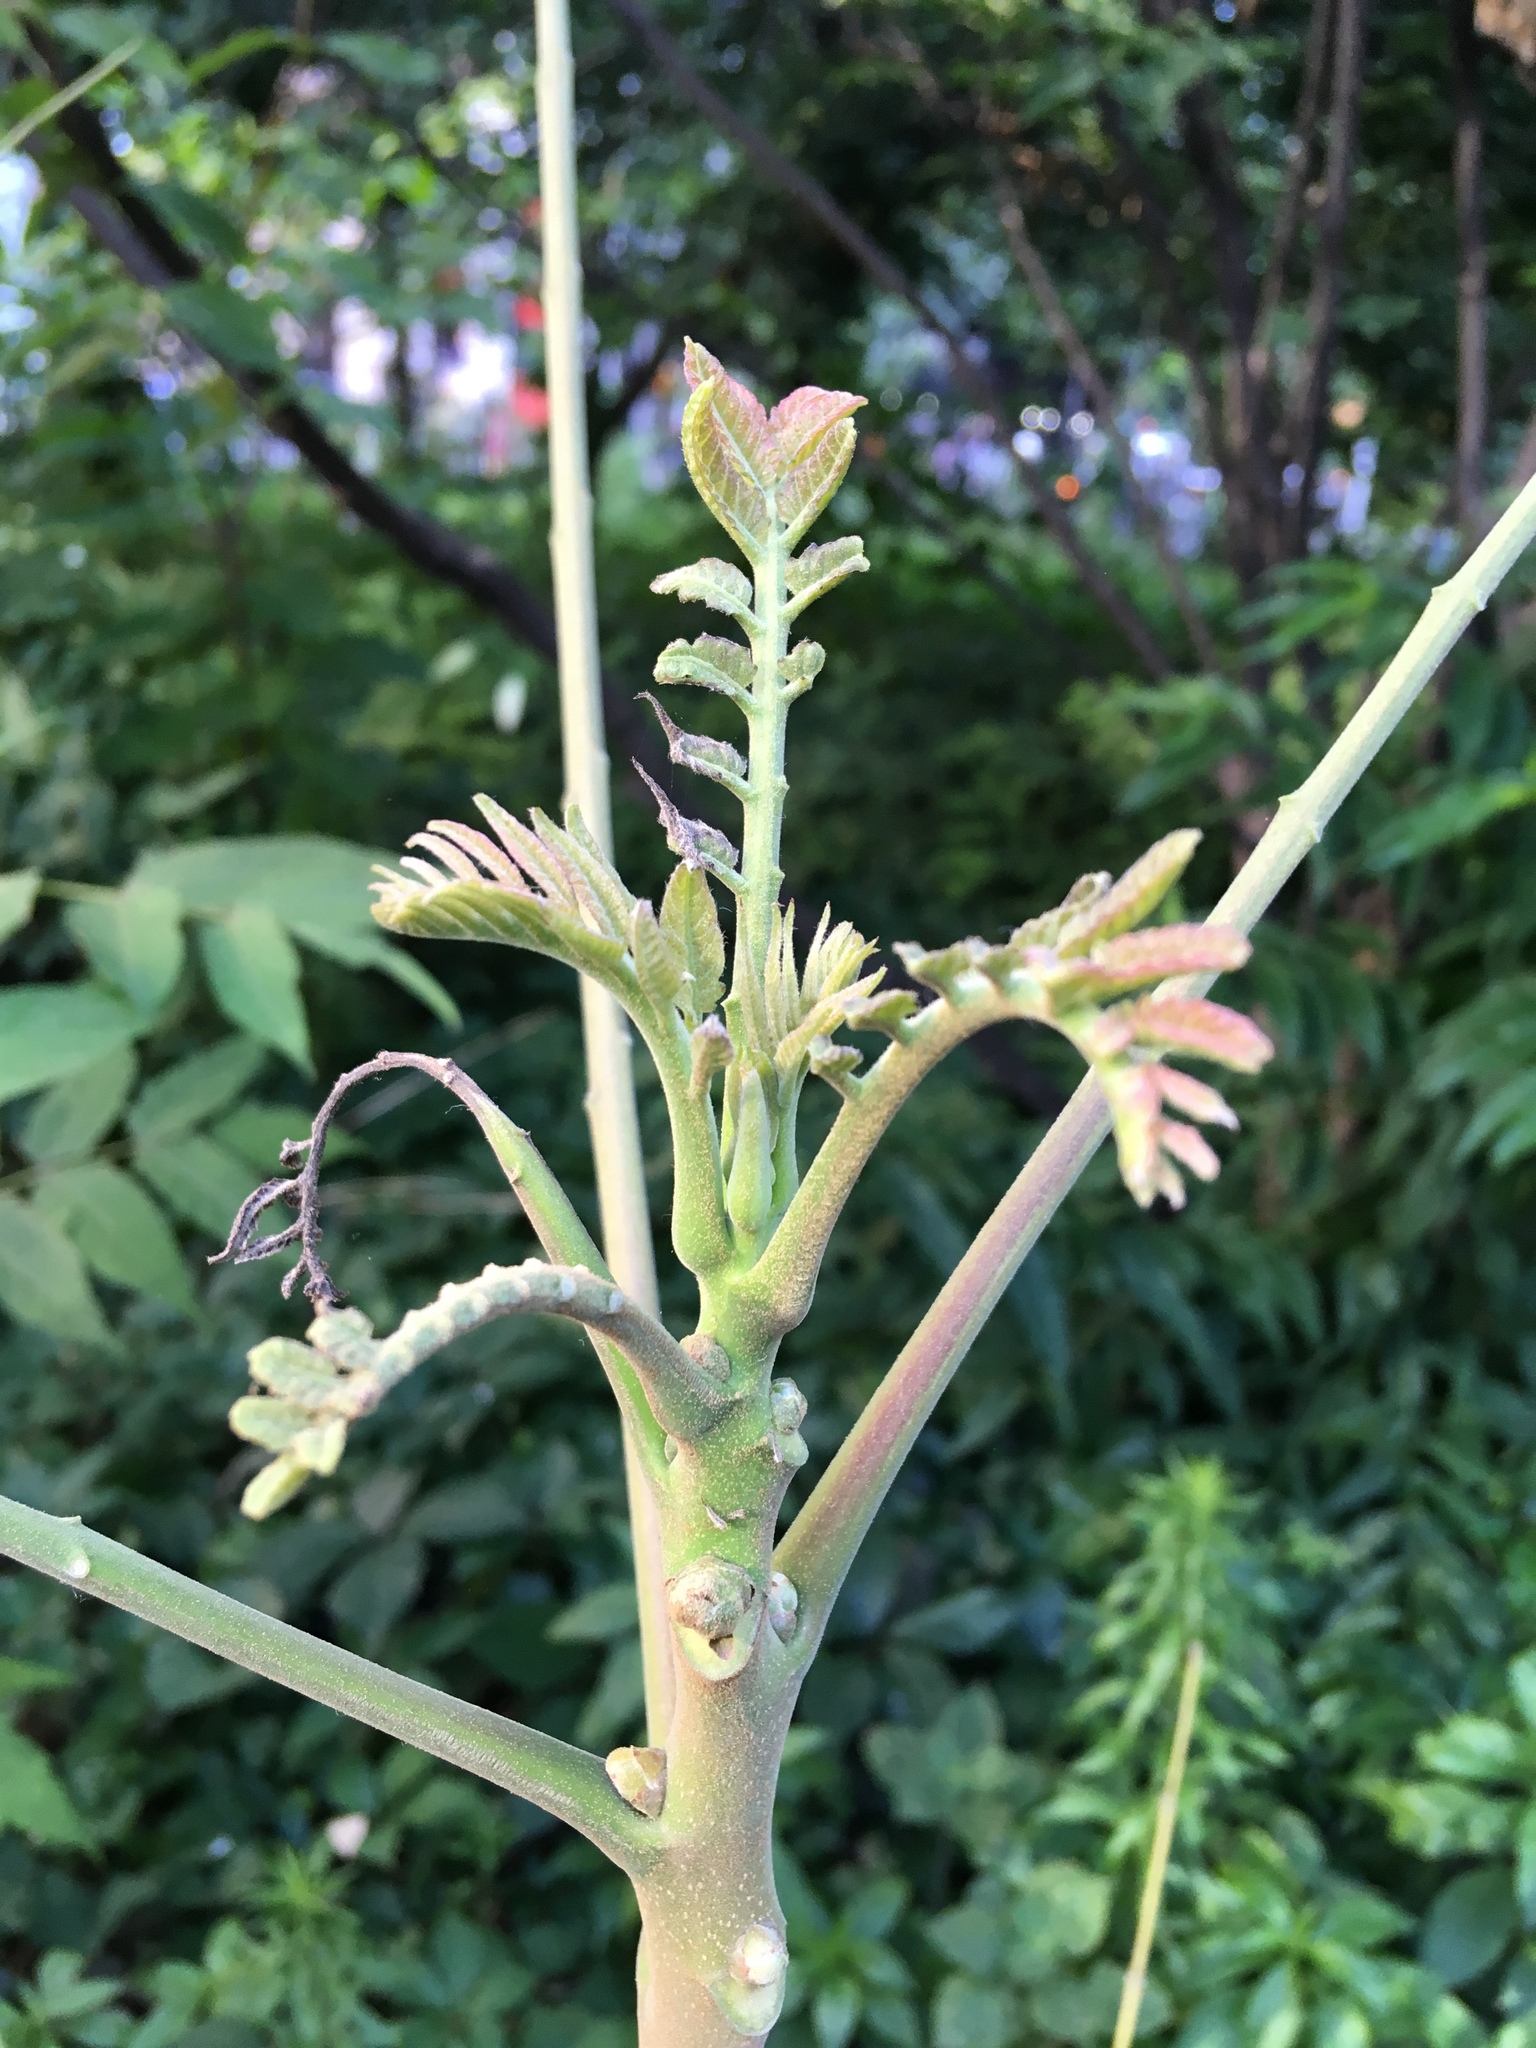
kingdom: Plantae
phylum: Tracheophyta
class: Magnoliopsida
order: Sapindales
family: Simaroubaceae
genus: Ailanthus
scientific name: Ailanthus altissima
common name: Tree-of-heaven
